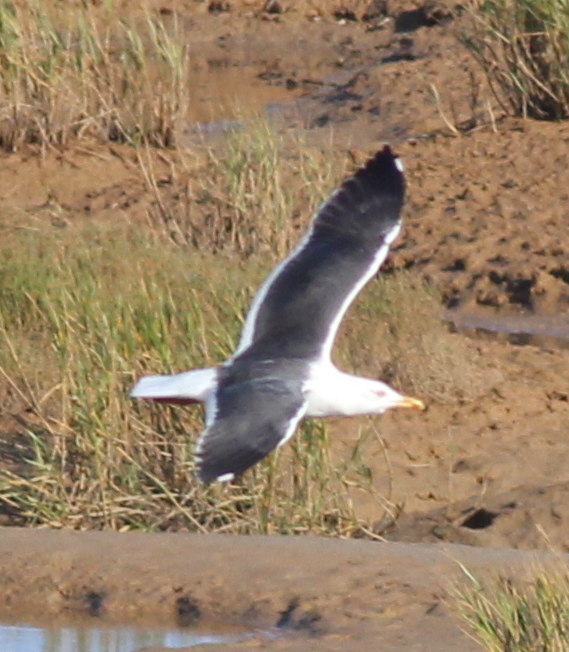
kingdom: Animalia
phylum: Chordata
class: Aves
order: Charadriiformes
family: Laridae
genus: Larus
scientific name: Larus fuscus
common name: Lesser black-backed gull
